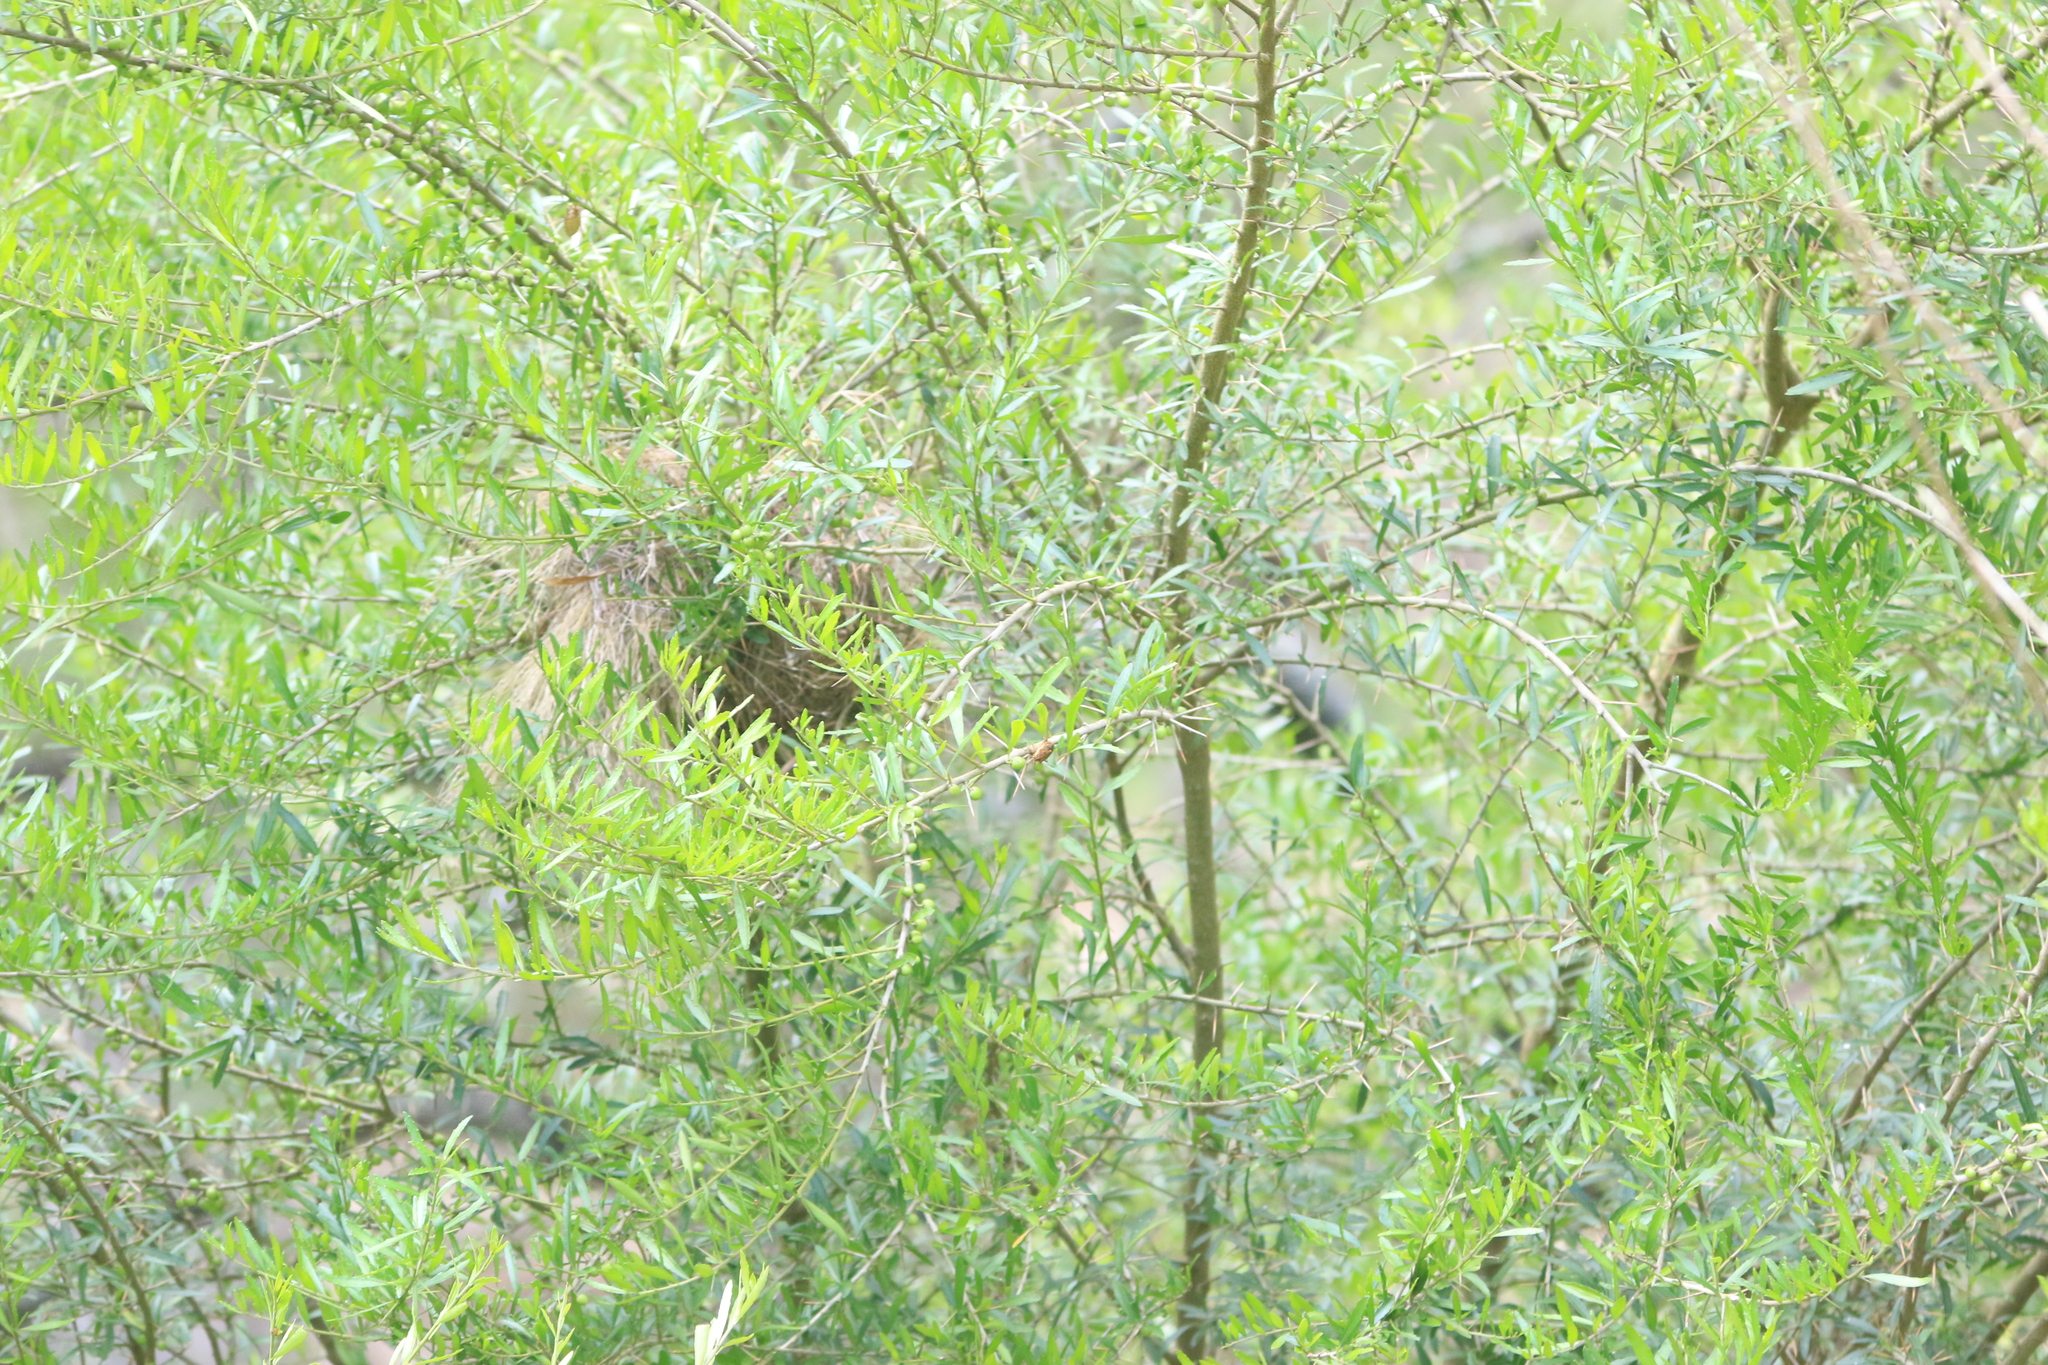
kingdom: Animalia
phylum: Arthropoda
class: Insecta
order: Hemiptera
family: Pentatomidae
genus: Omyta
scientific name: Omyta centrolineata
